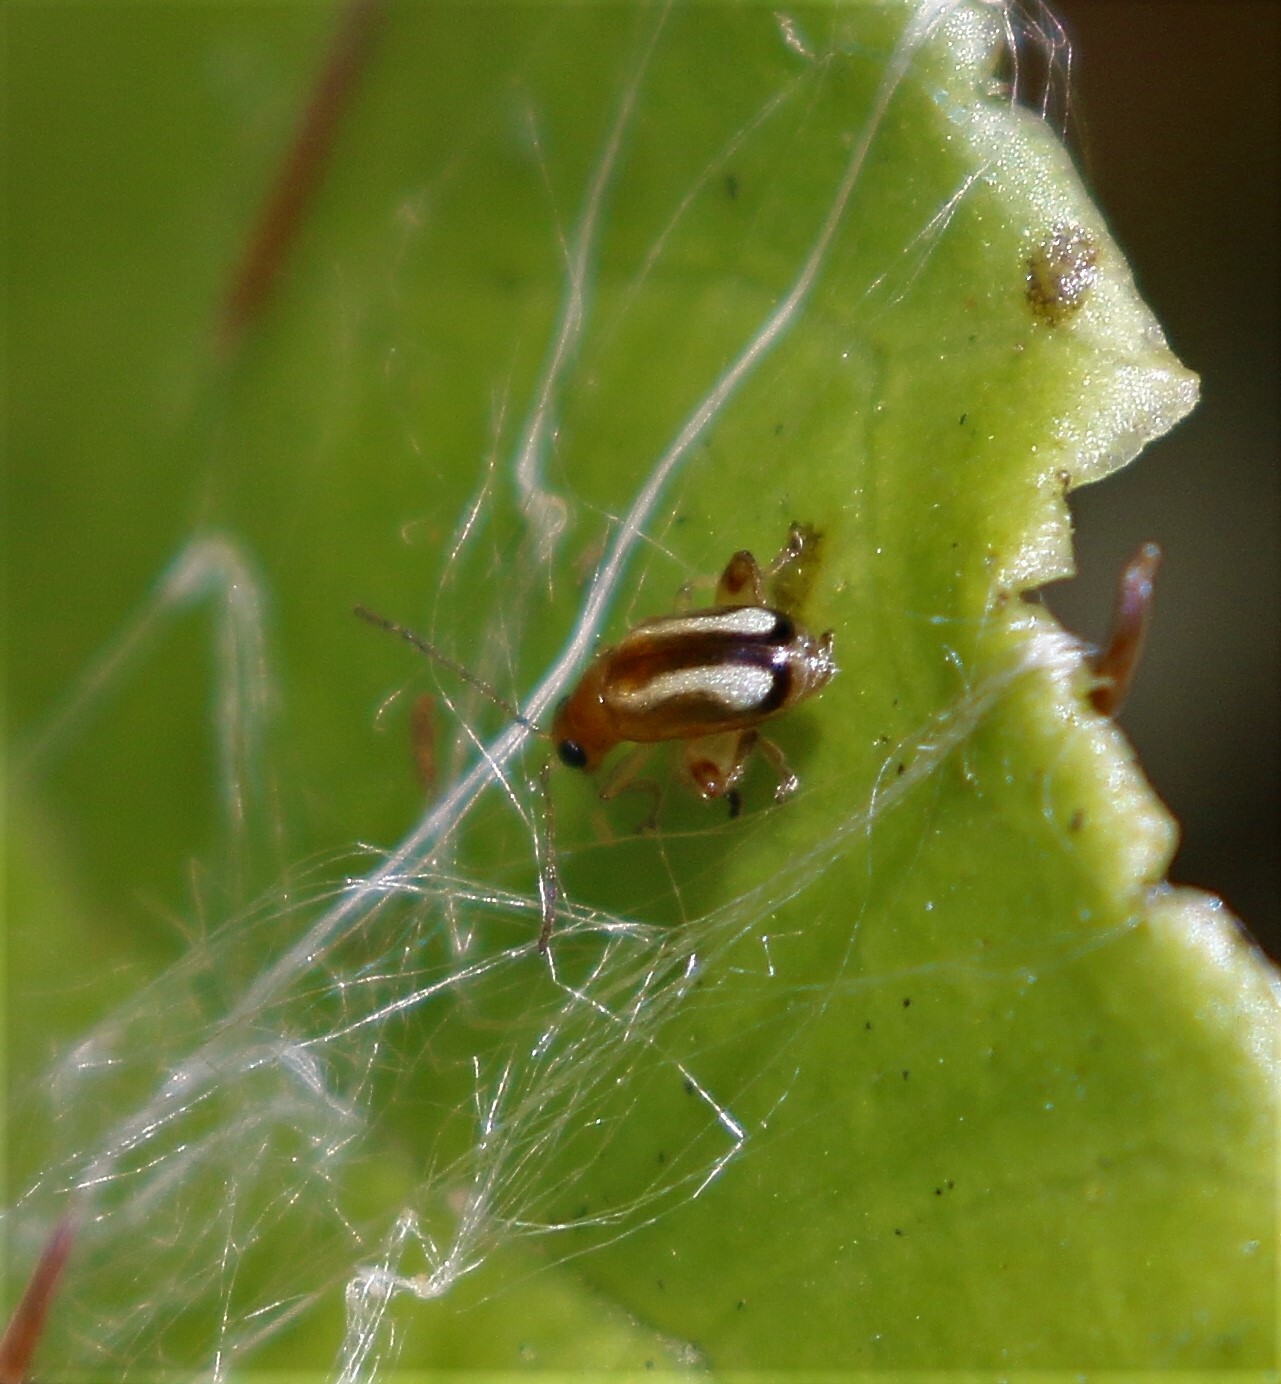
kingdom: Animalia
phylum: Arthropoda
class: Insecta
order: Coleoptera
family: Chrysomelidae
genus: Systena
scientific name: Systena s-littera
